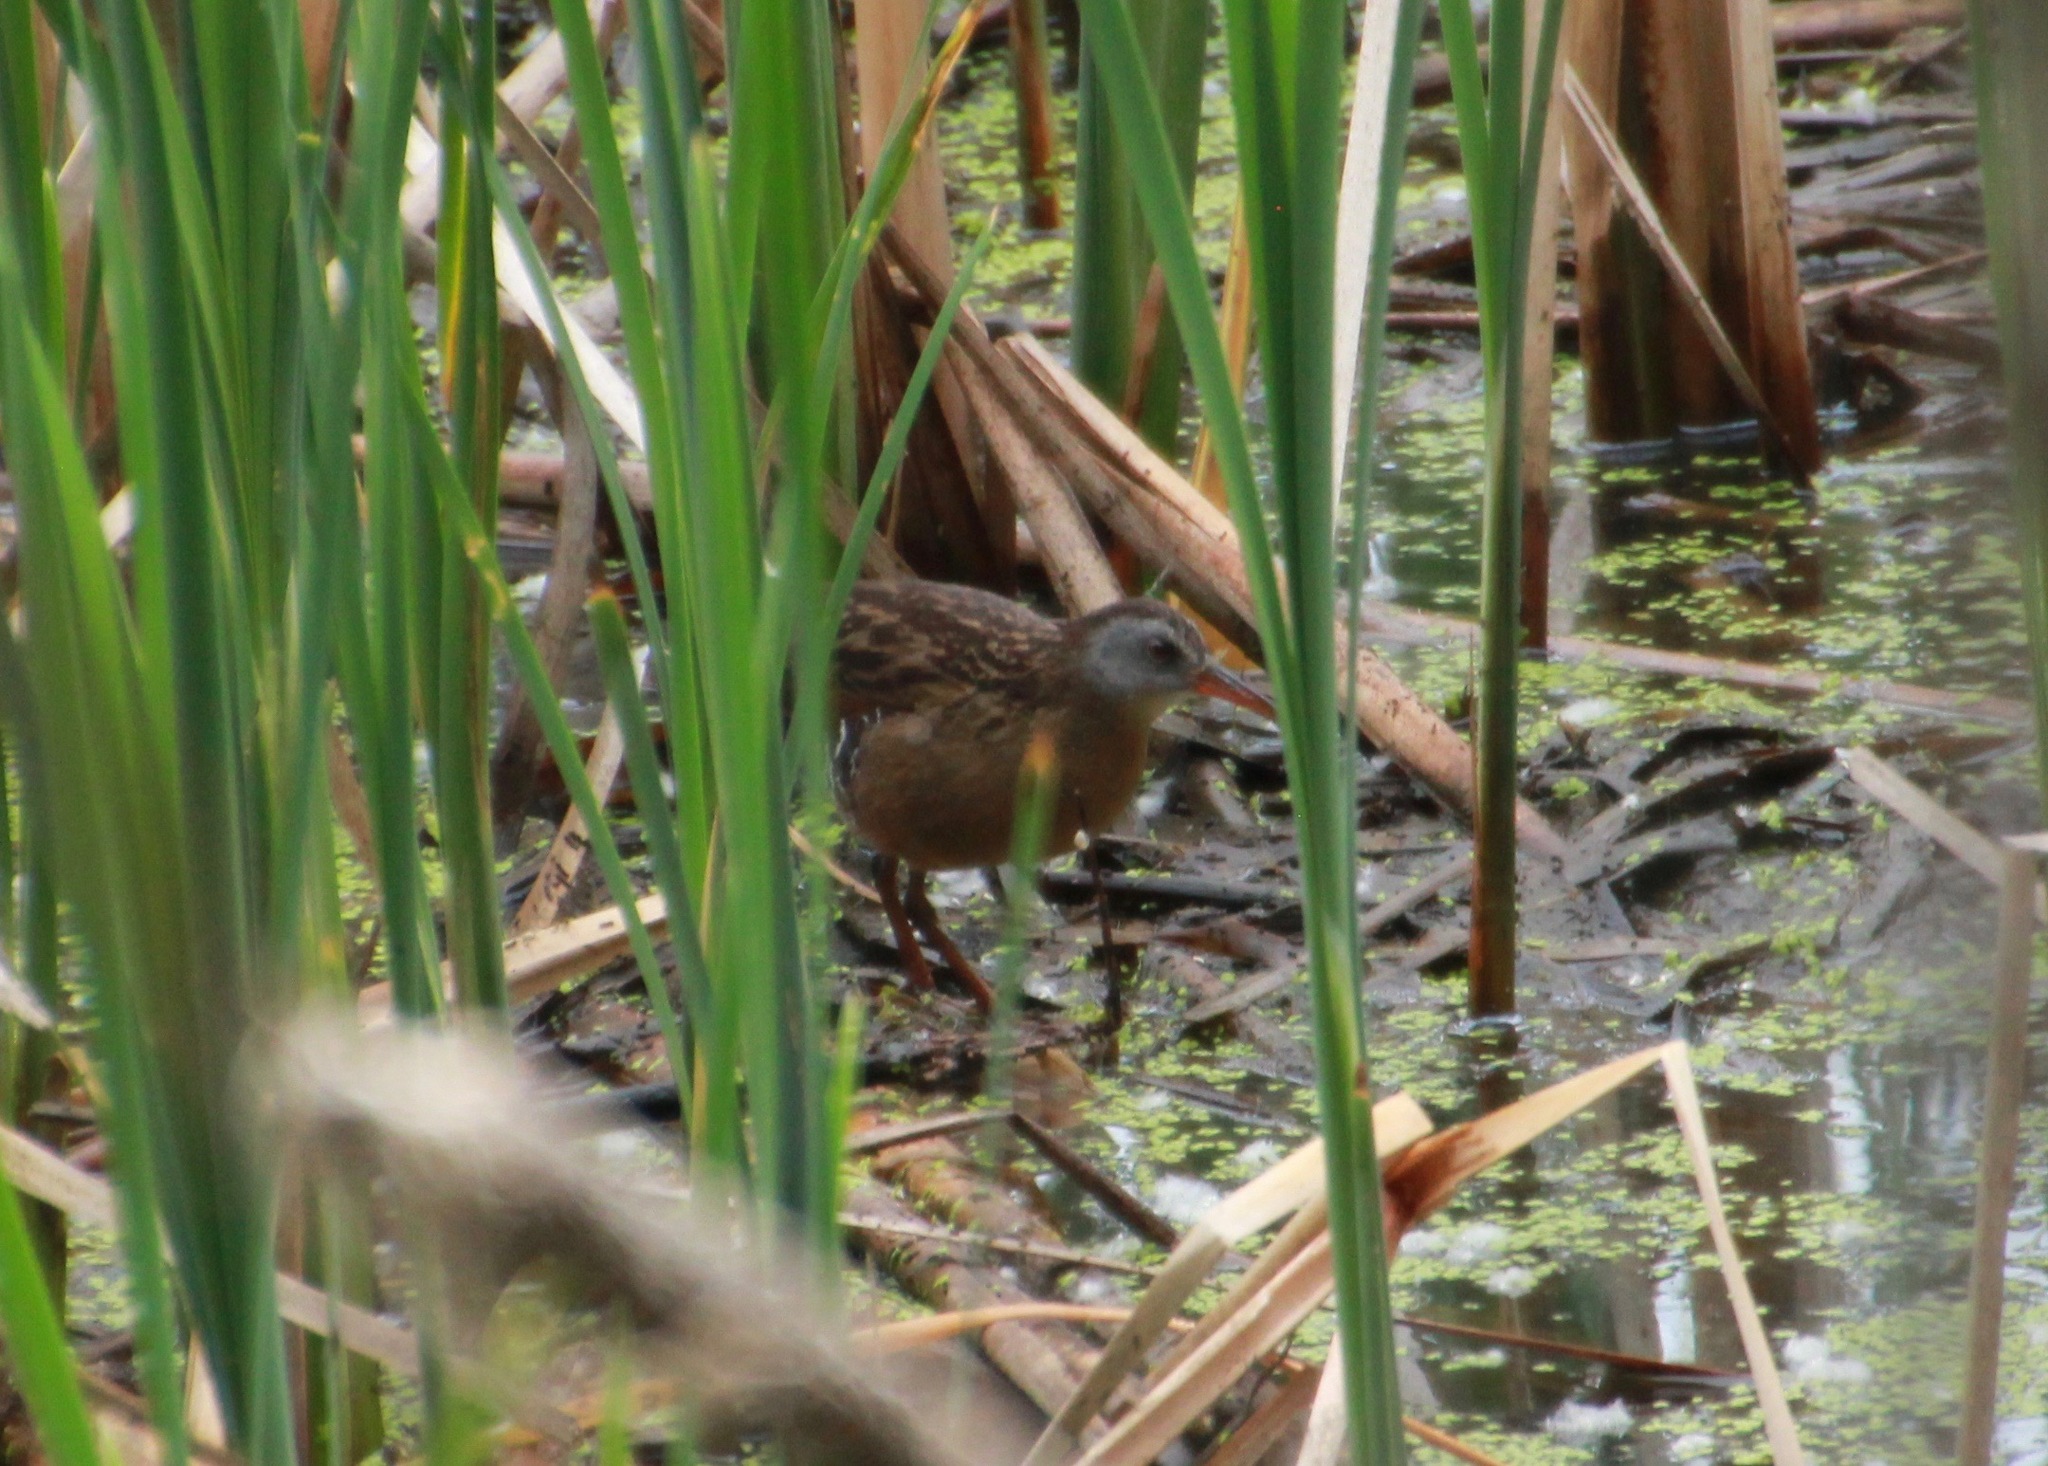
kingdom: Animalia
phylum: Chordata
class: Aves
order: Gruiformes
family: Rallidae
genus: Rallus
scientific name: Rallus limicola
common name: Virginia rail
